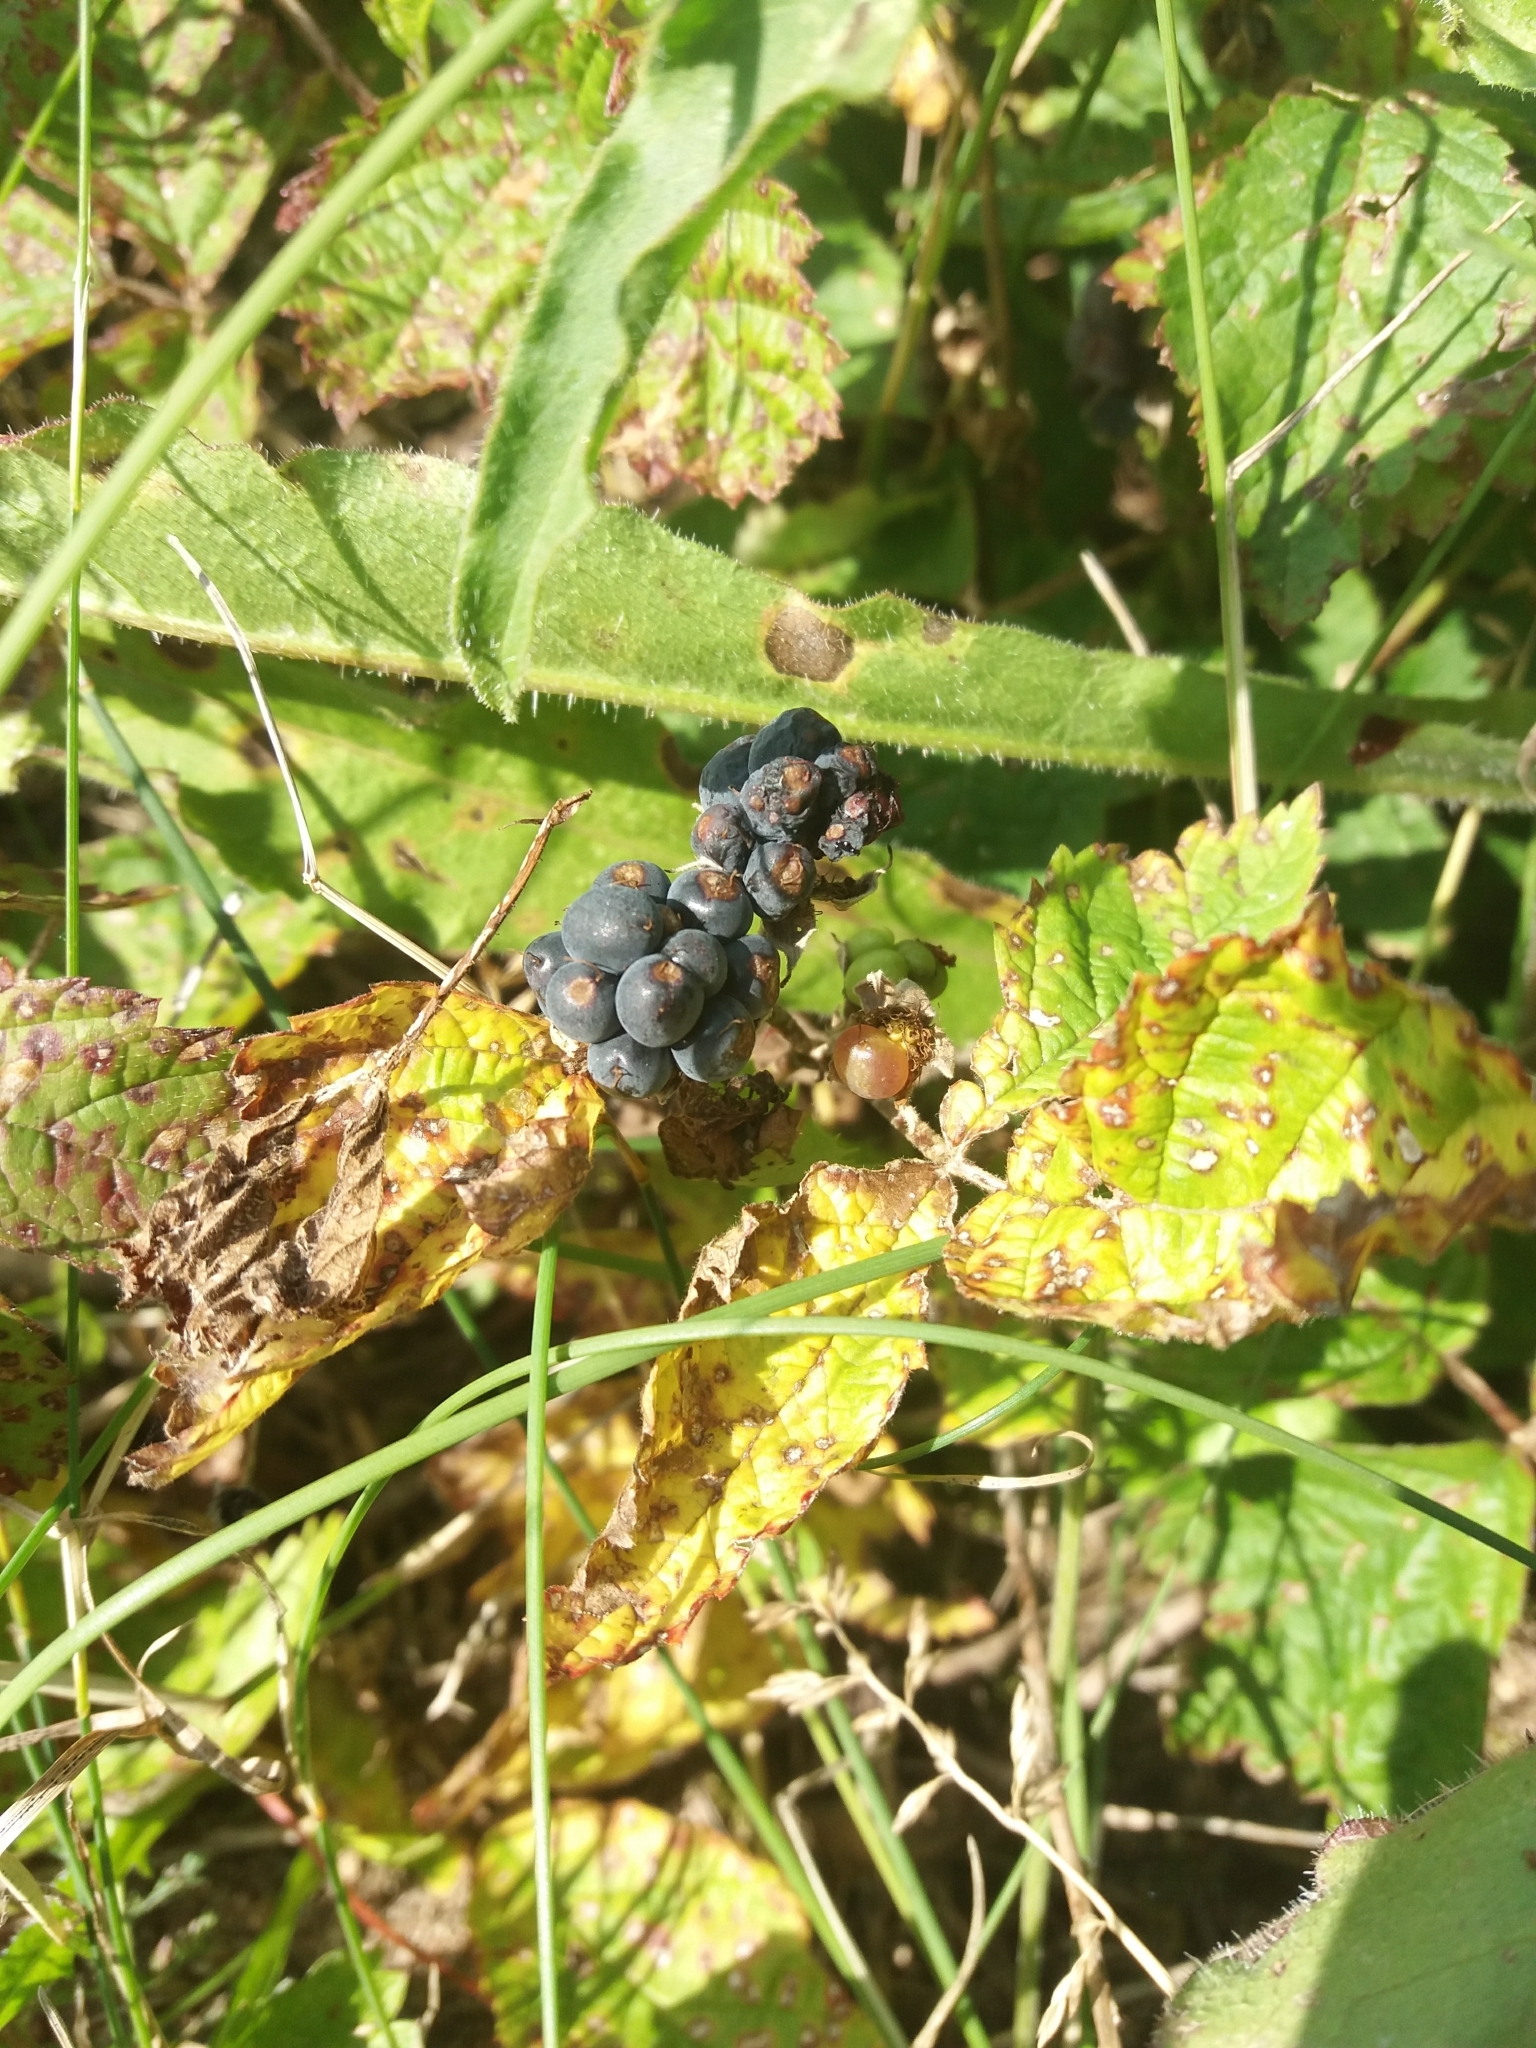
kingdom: Plantae
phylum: Tracheophyta
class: Magnoliopsida
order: Rosales
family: Rosaceae
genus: Rubus
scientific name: Rubus caesius
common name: Dewberry
